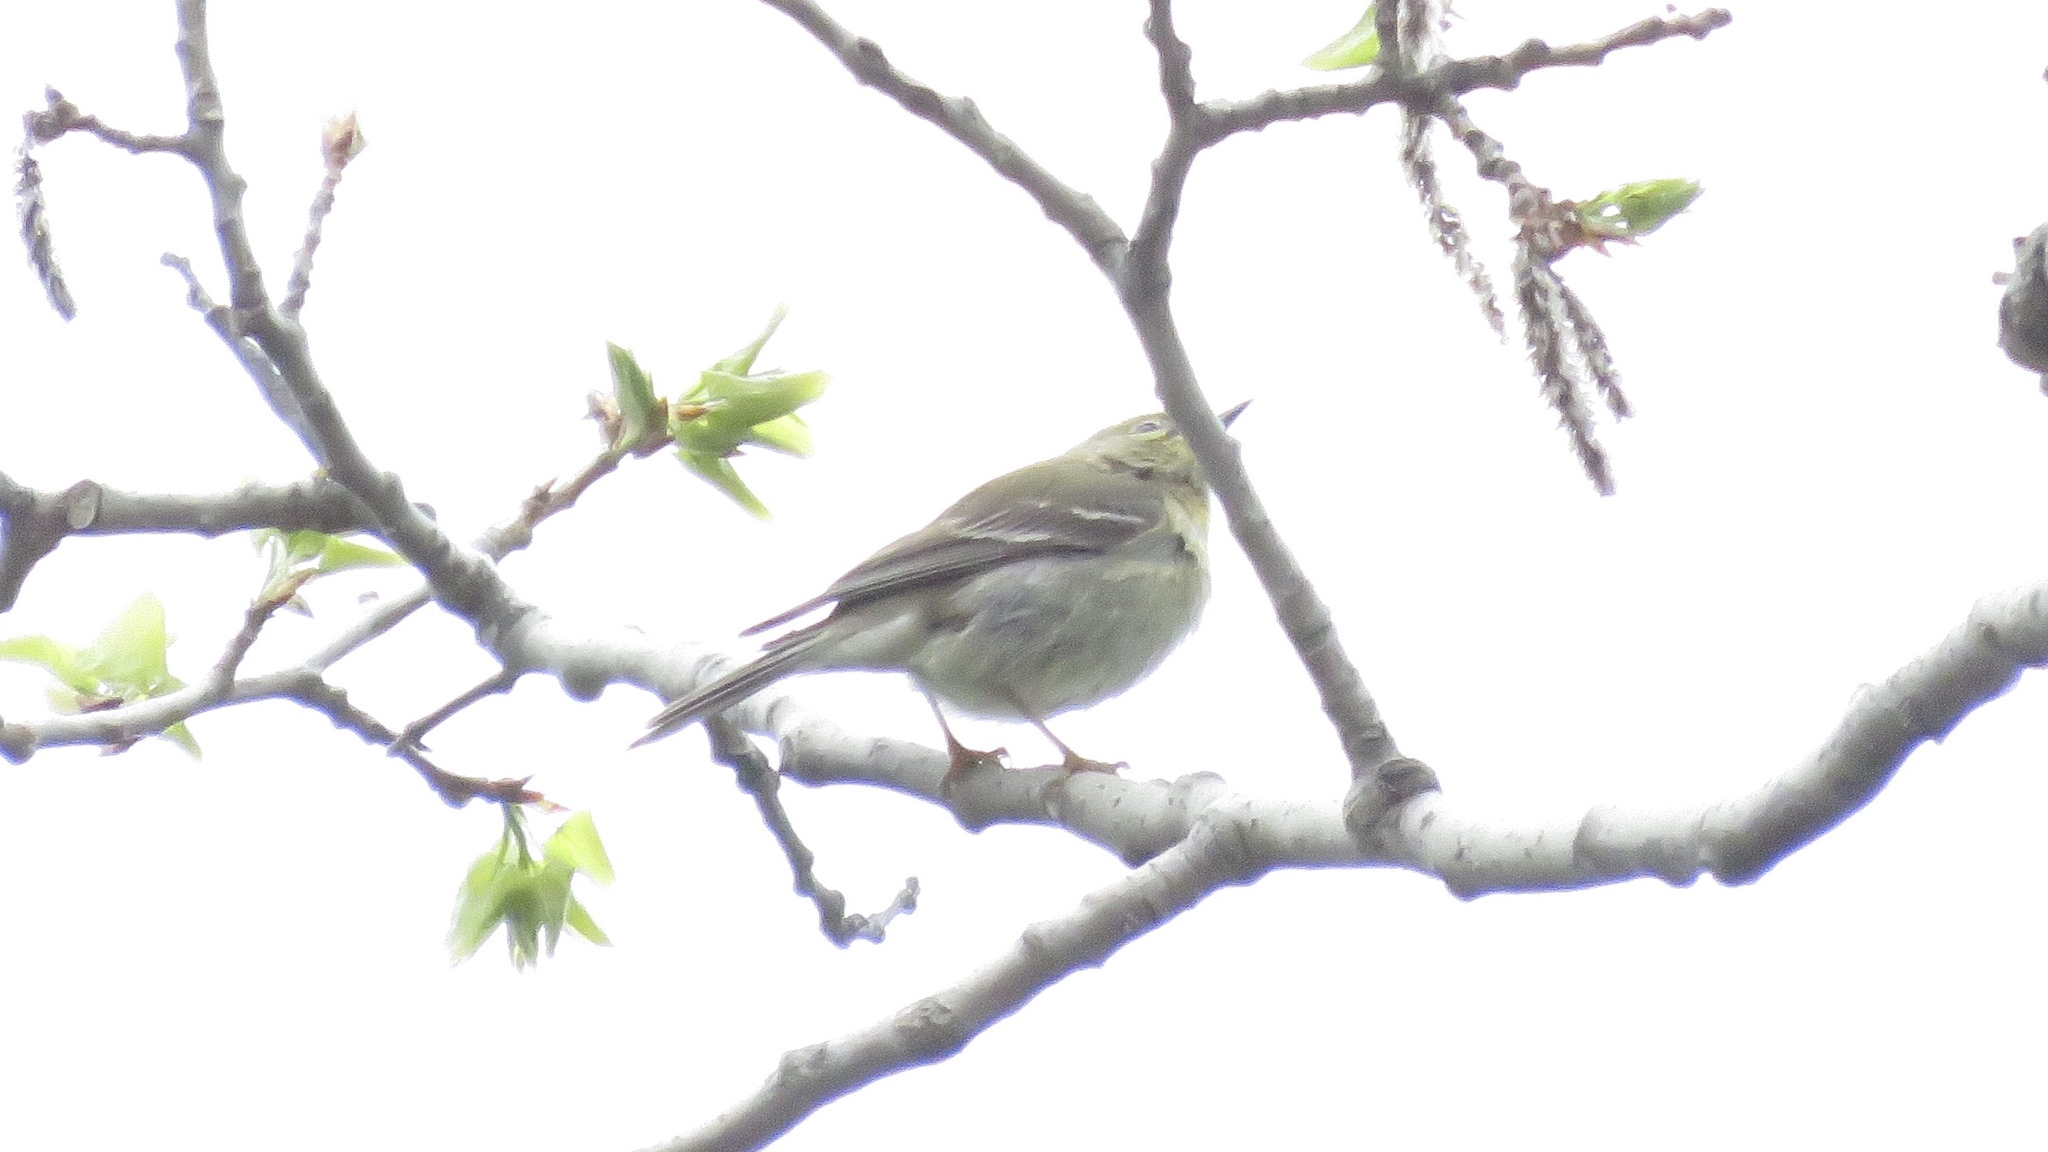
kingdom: Animalia
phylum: Chordata
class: Aves
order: Passeriformes
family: Parulidae
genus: Setophaga
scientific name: Setophaga striata
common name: Blackpoll warbler
